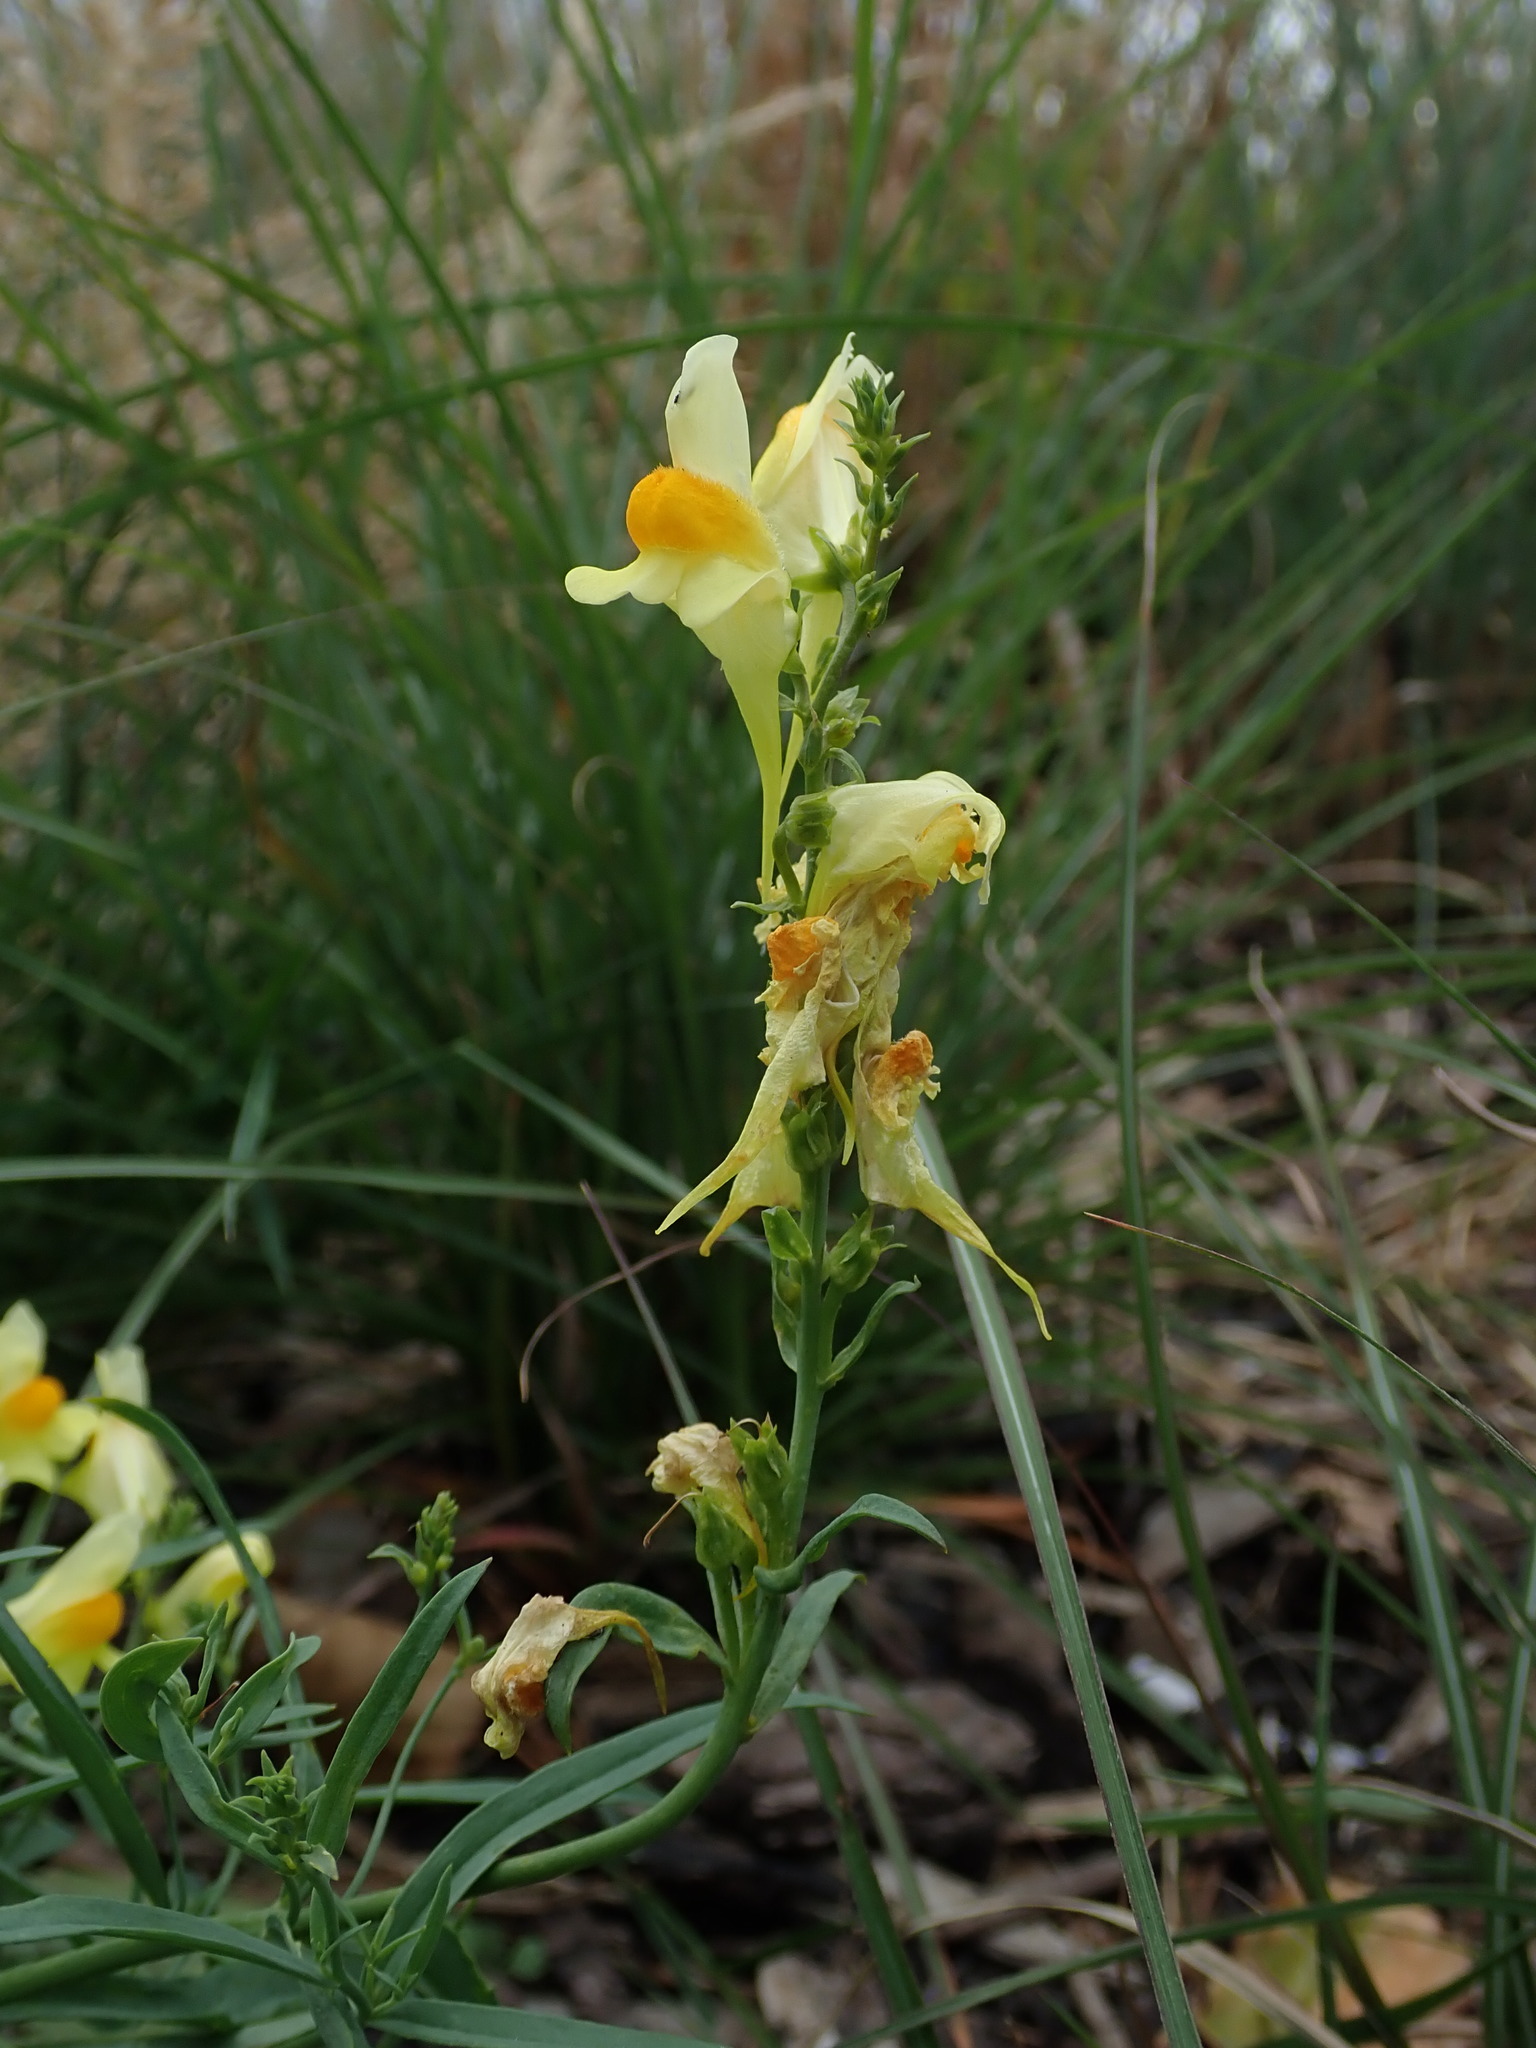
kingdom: Plantae
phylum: Tracheophyta
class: Magnoliopsida
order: Lamiales
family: Plantaginaceae
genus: Linaria
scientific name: Linaria vulgaris
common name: Butter and eggs
